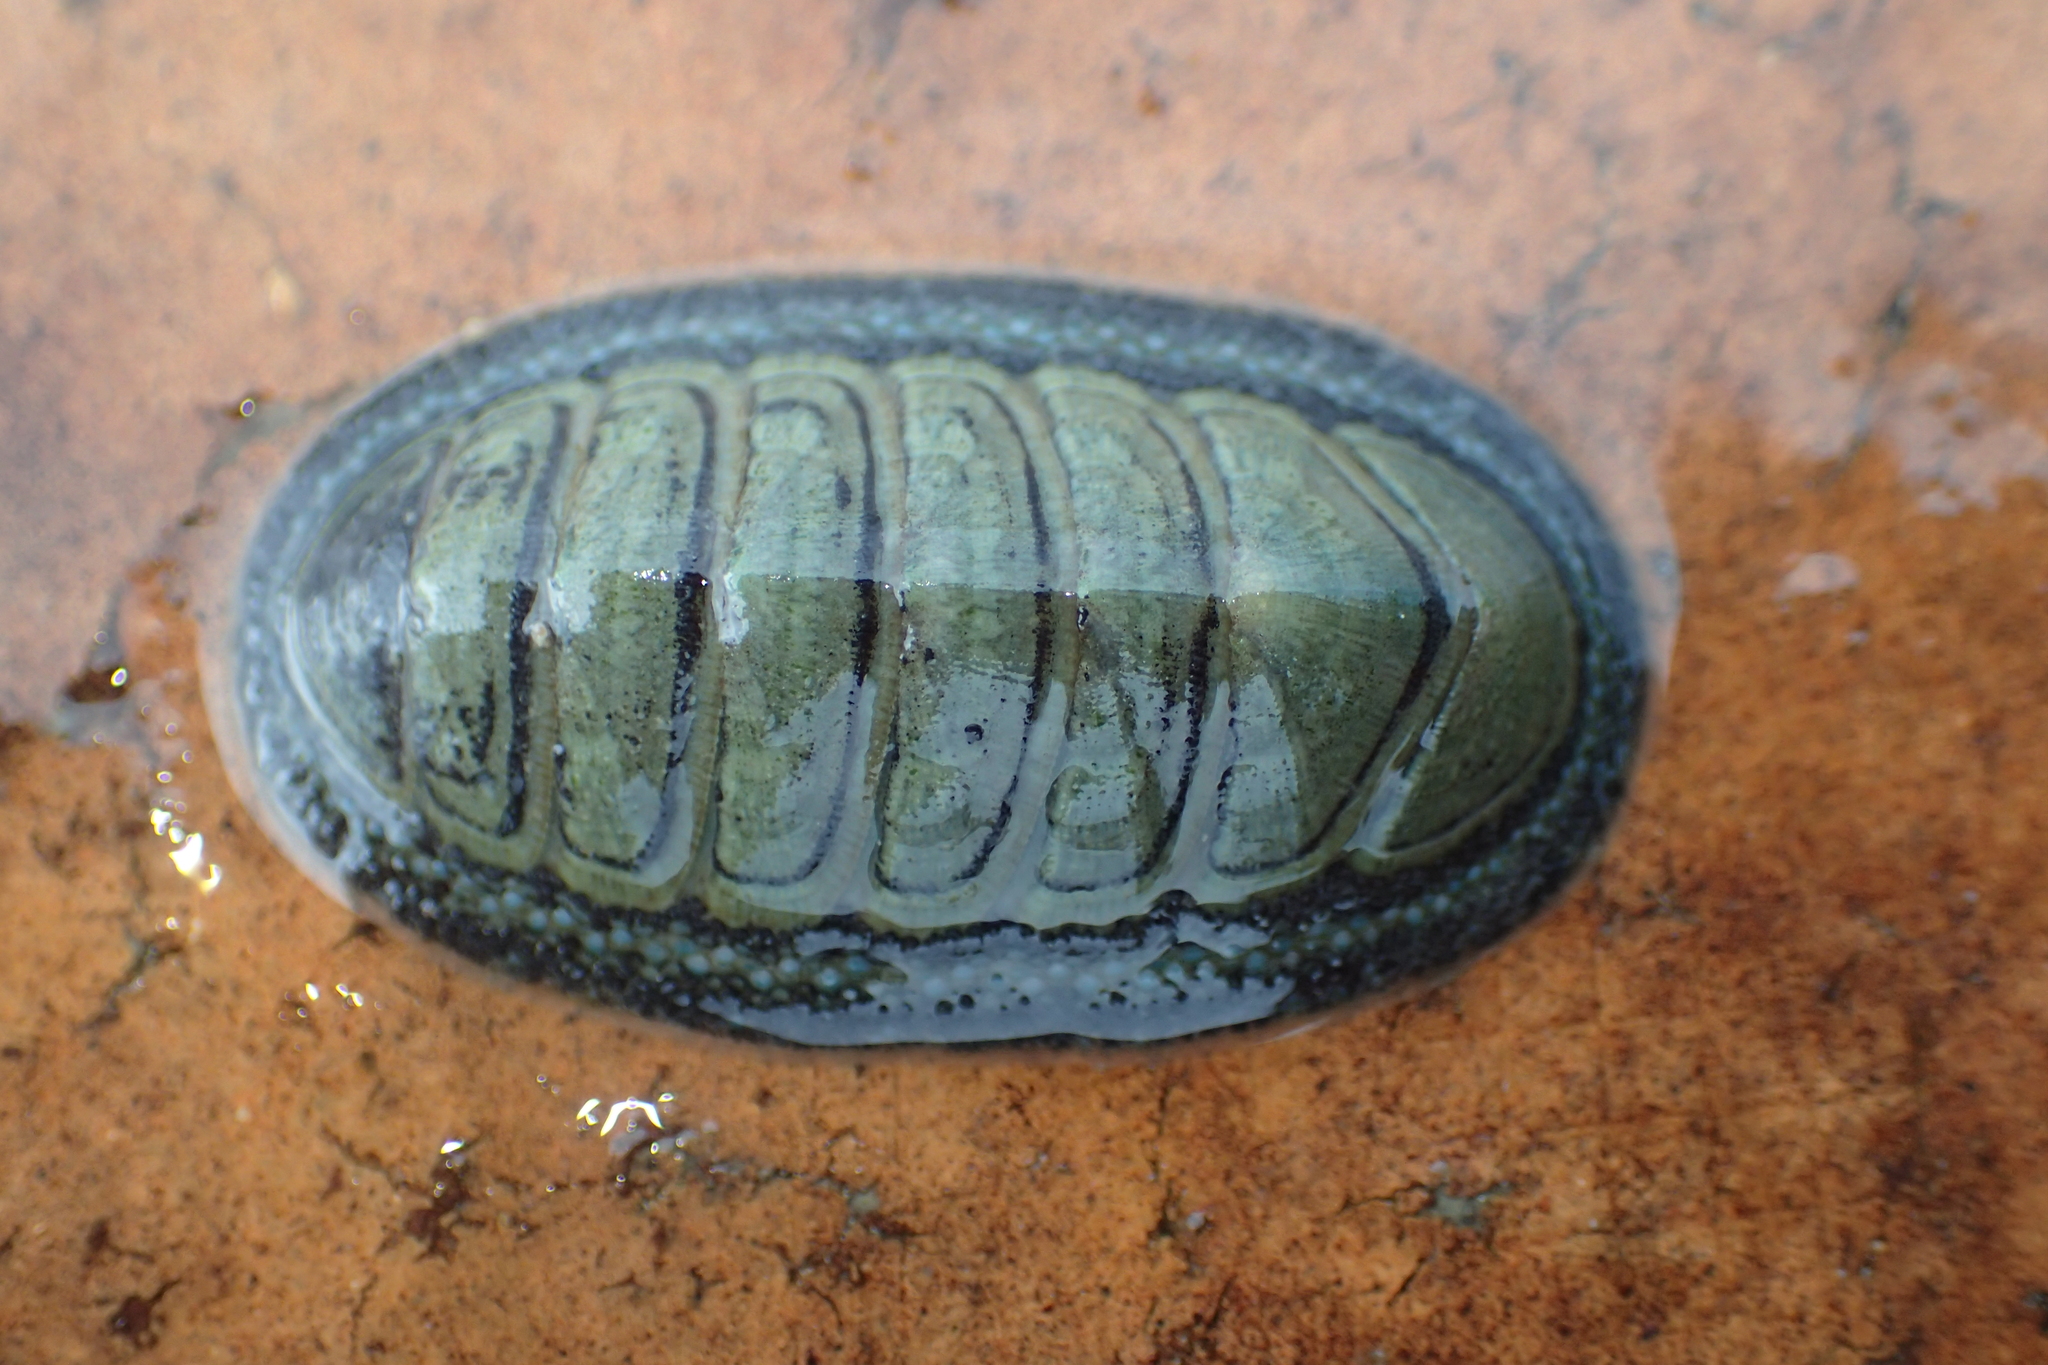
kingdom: Animalia
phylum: Mollusca
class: Polyplacophora
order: Chitonida
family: Chitonidae
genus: Chiton
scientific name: Chiton glaucus
